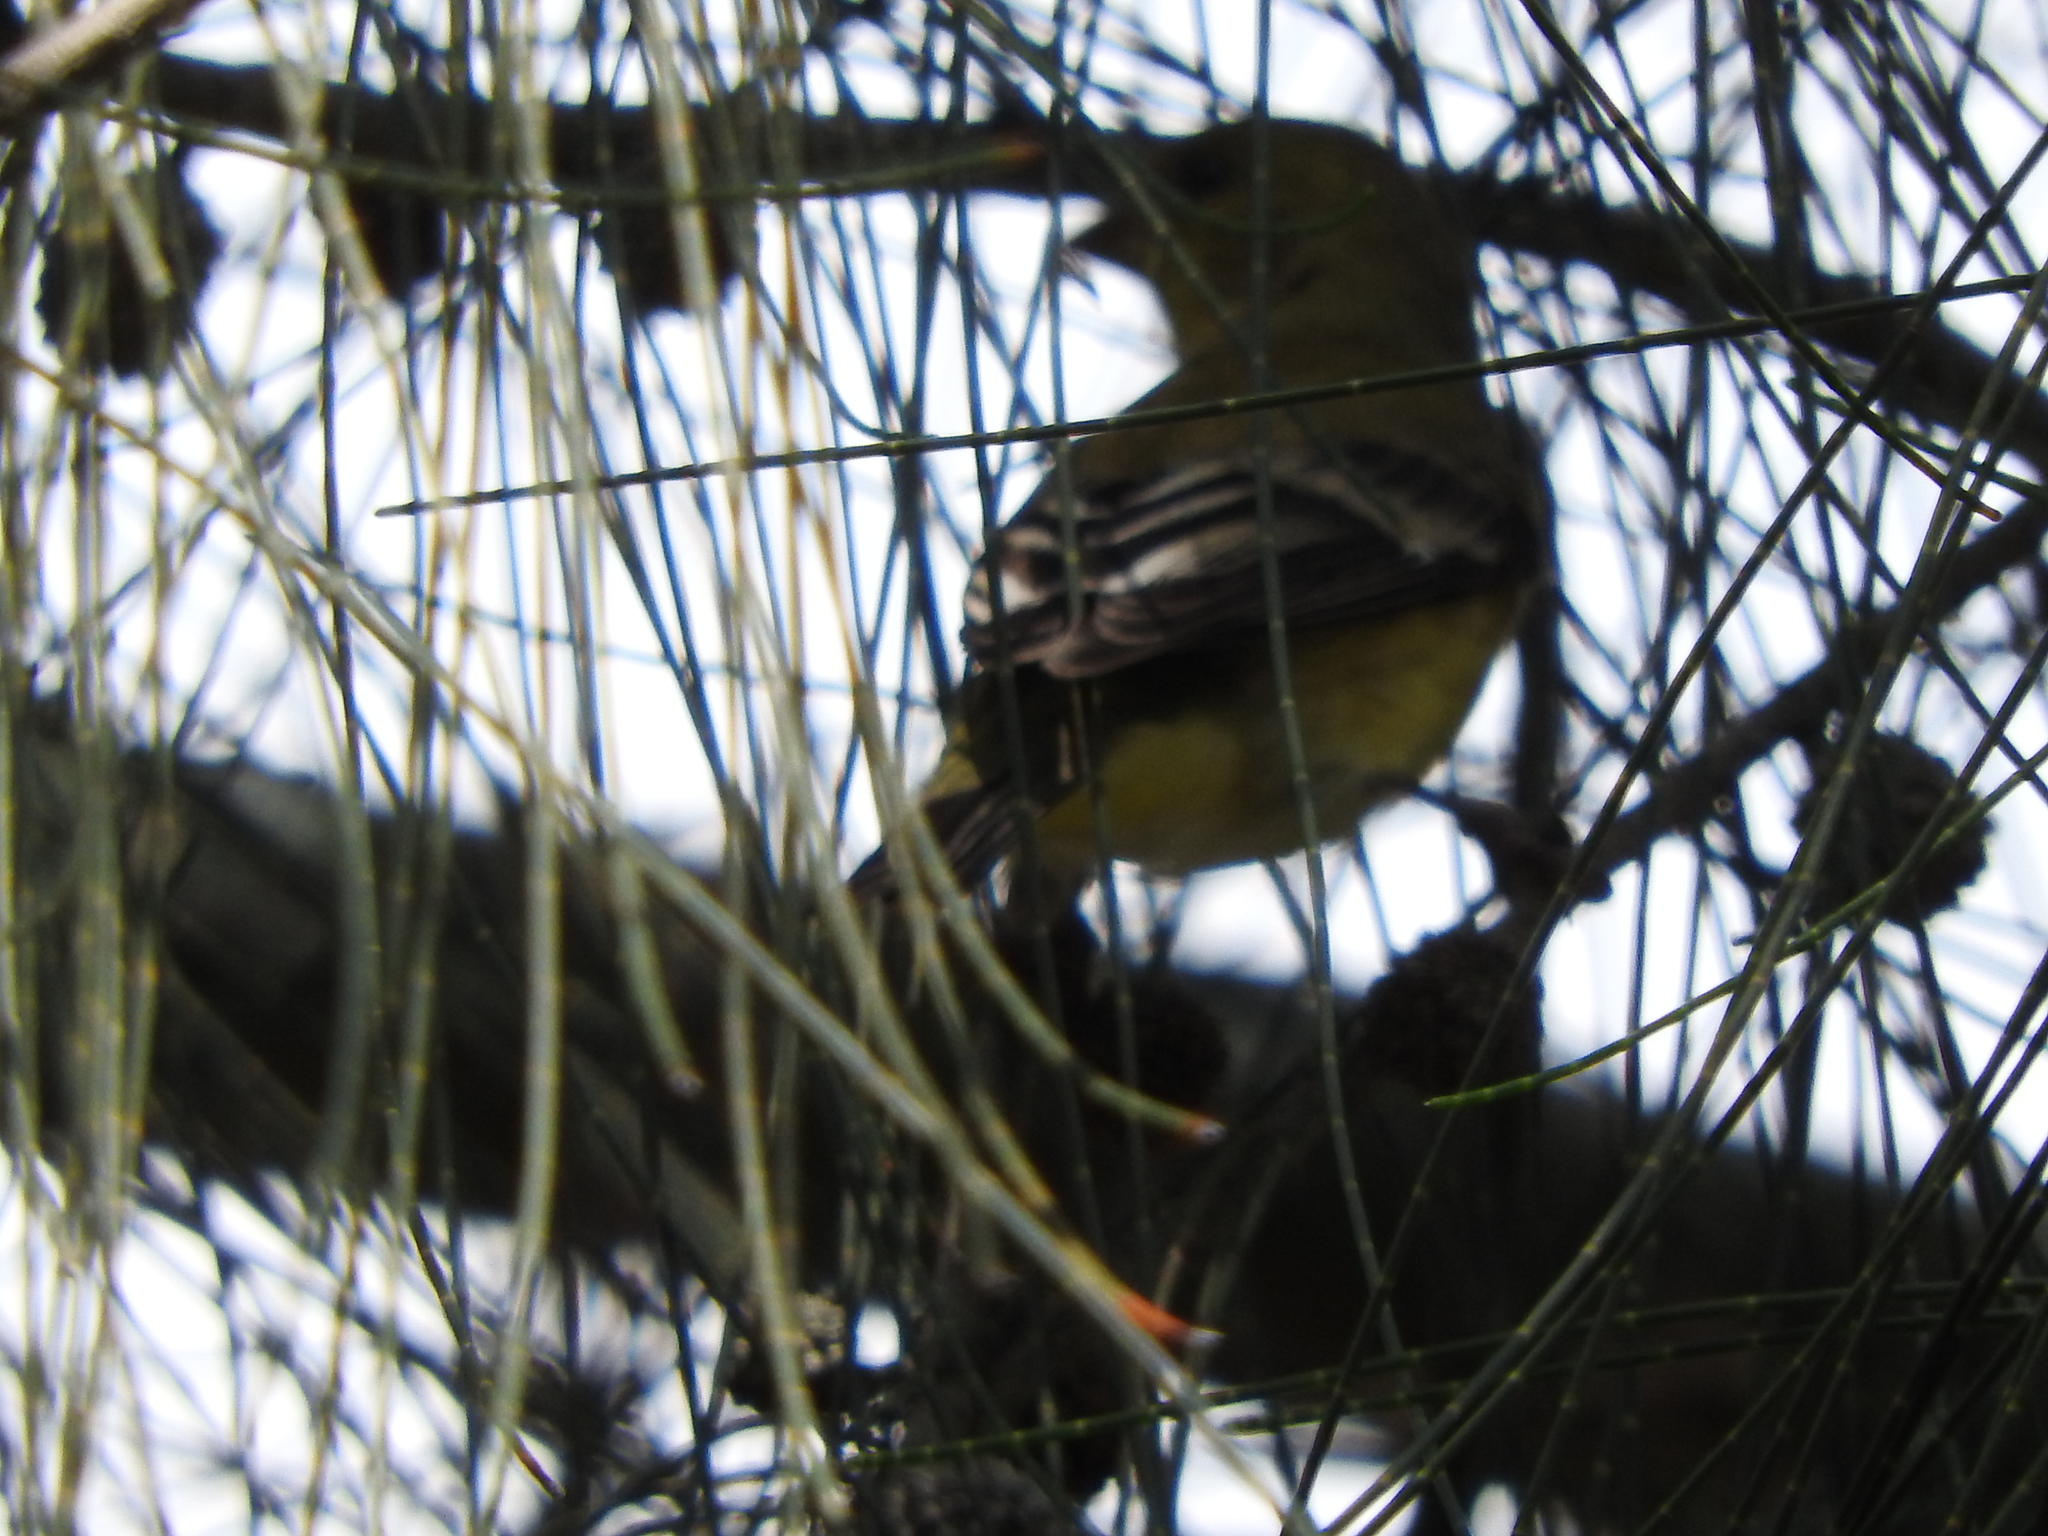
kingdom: Animalia
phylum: Chordata
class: Aves
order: Passeriformes
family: Fringillidae
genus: Spinus
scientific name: Spinus psaltria
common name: Lesser goldfinch
